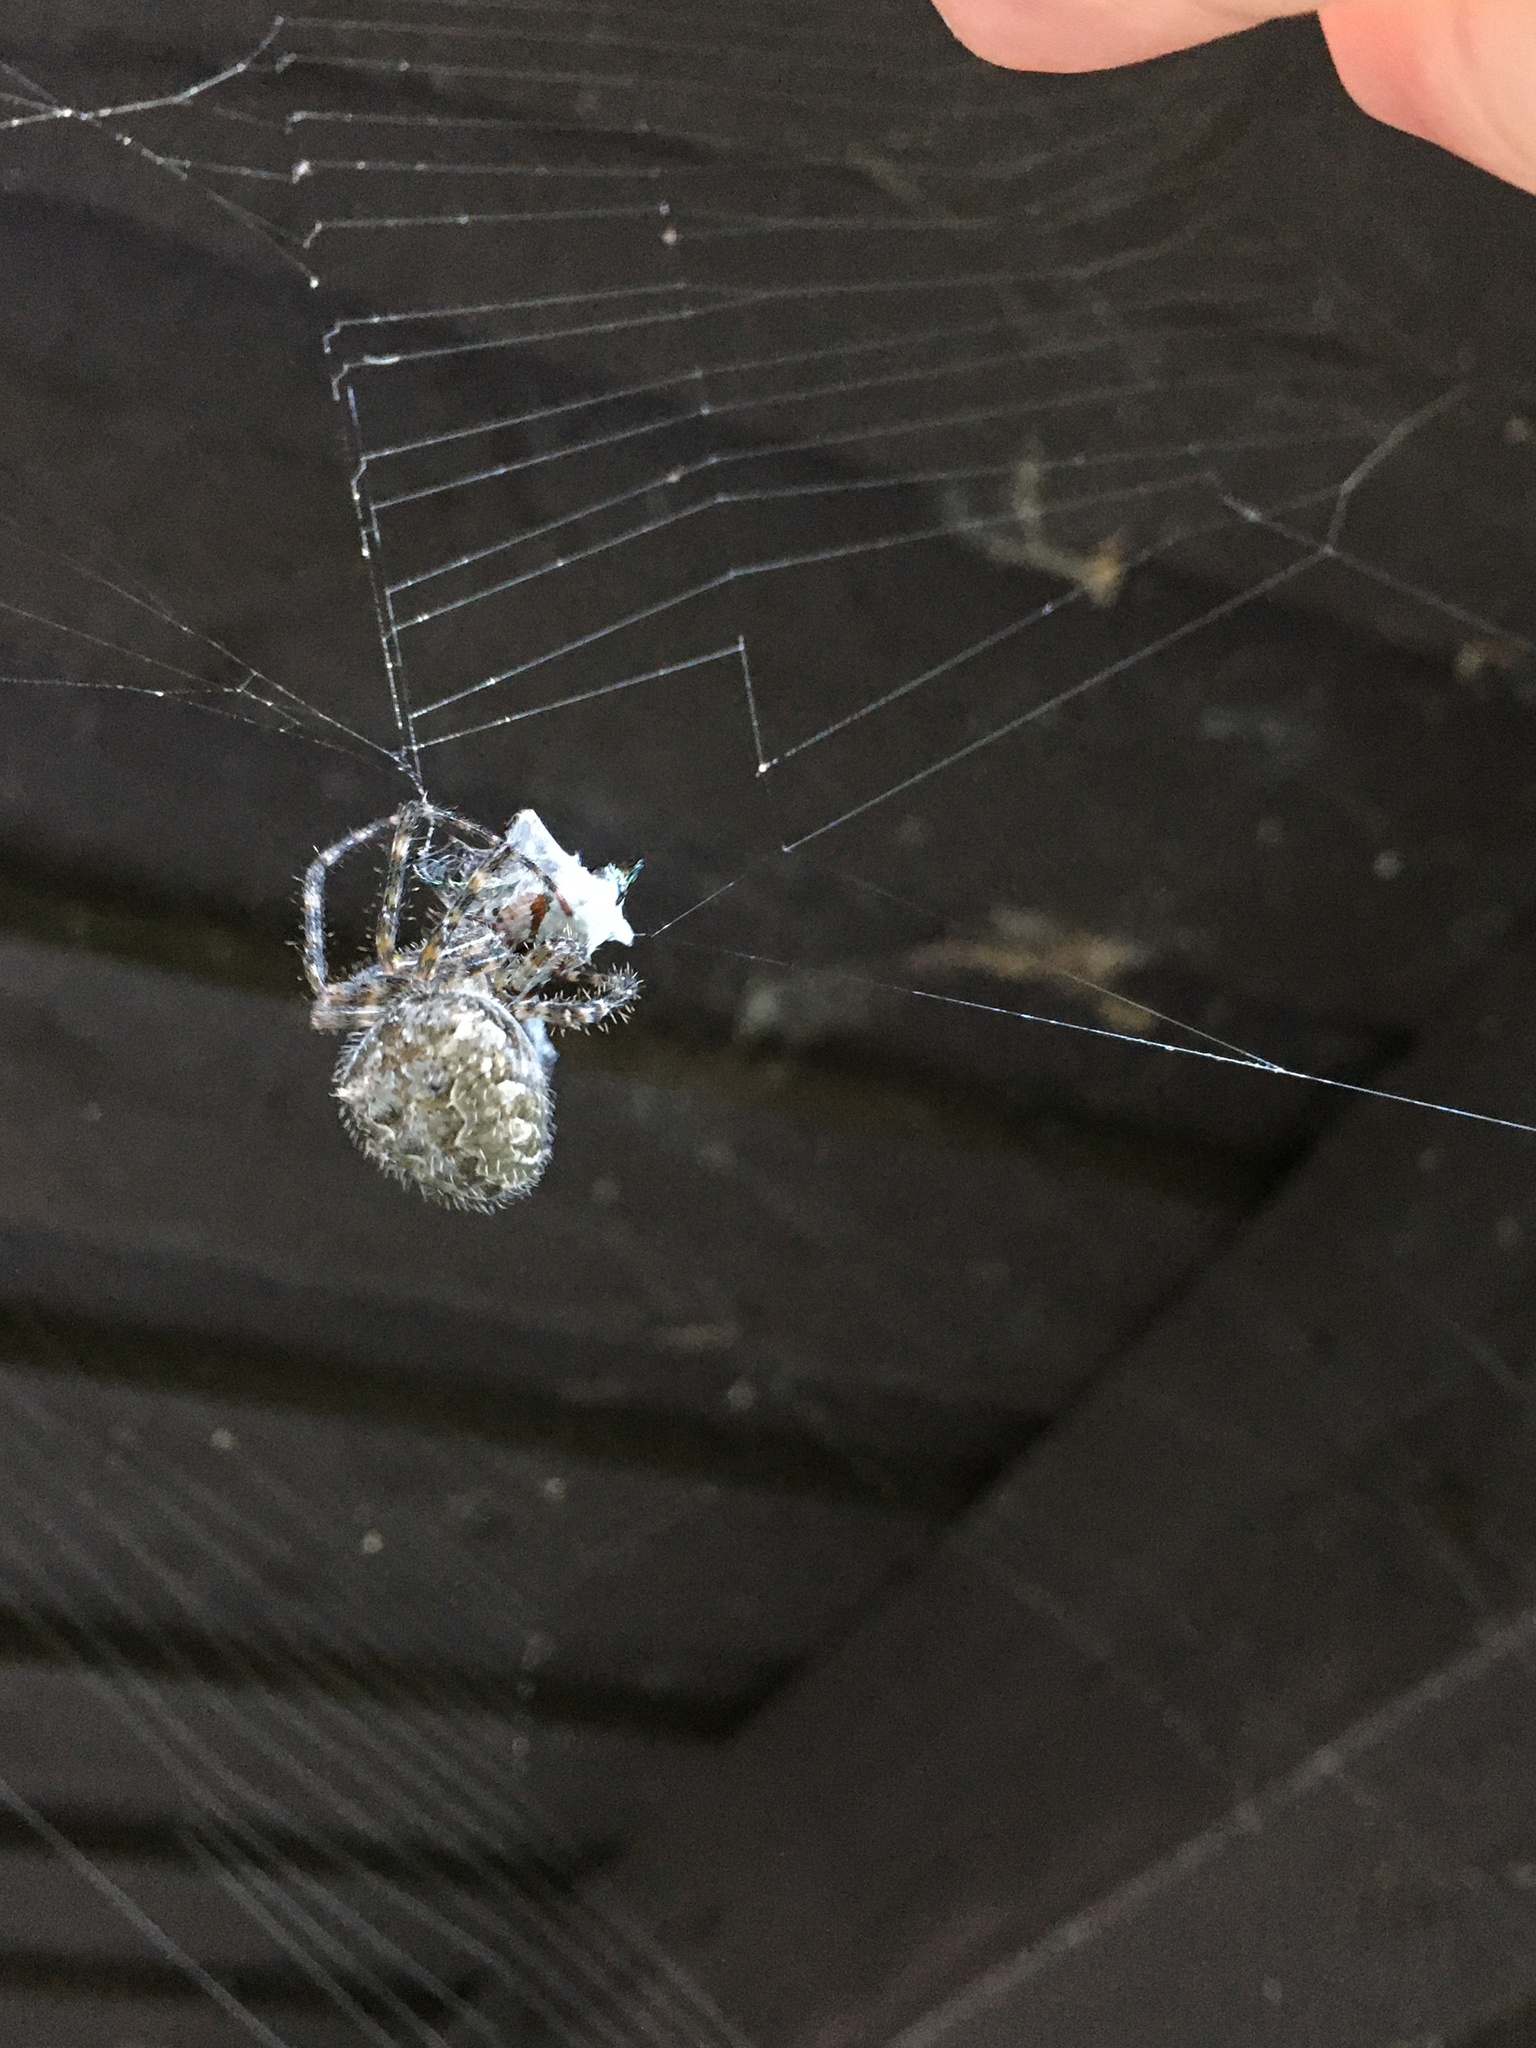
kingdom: Animalia
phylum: Arthropoda
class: Arachnida
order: Araneae
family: Araneidae
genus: Araneus
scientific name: Araneus cavaticus
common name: Barn orbweaver
